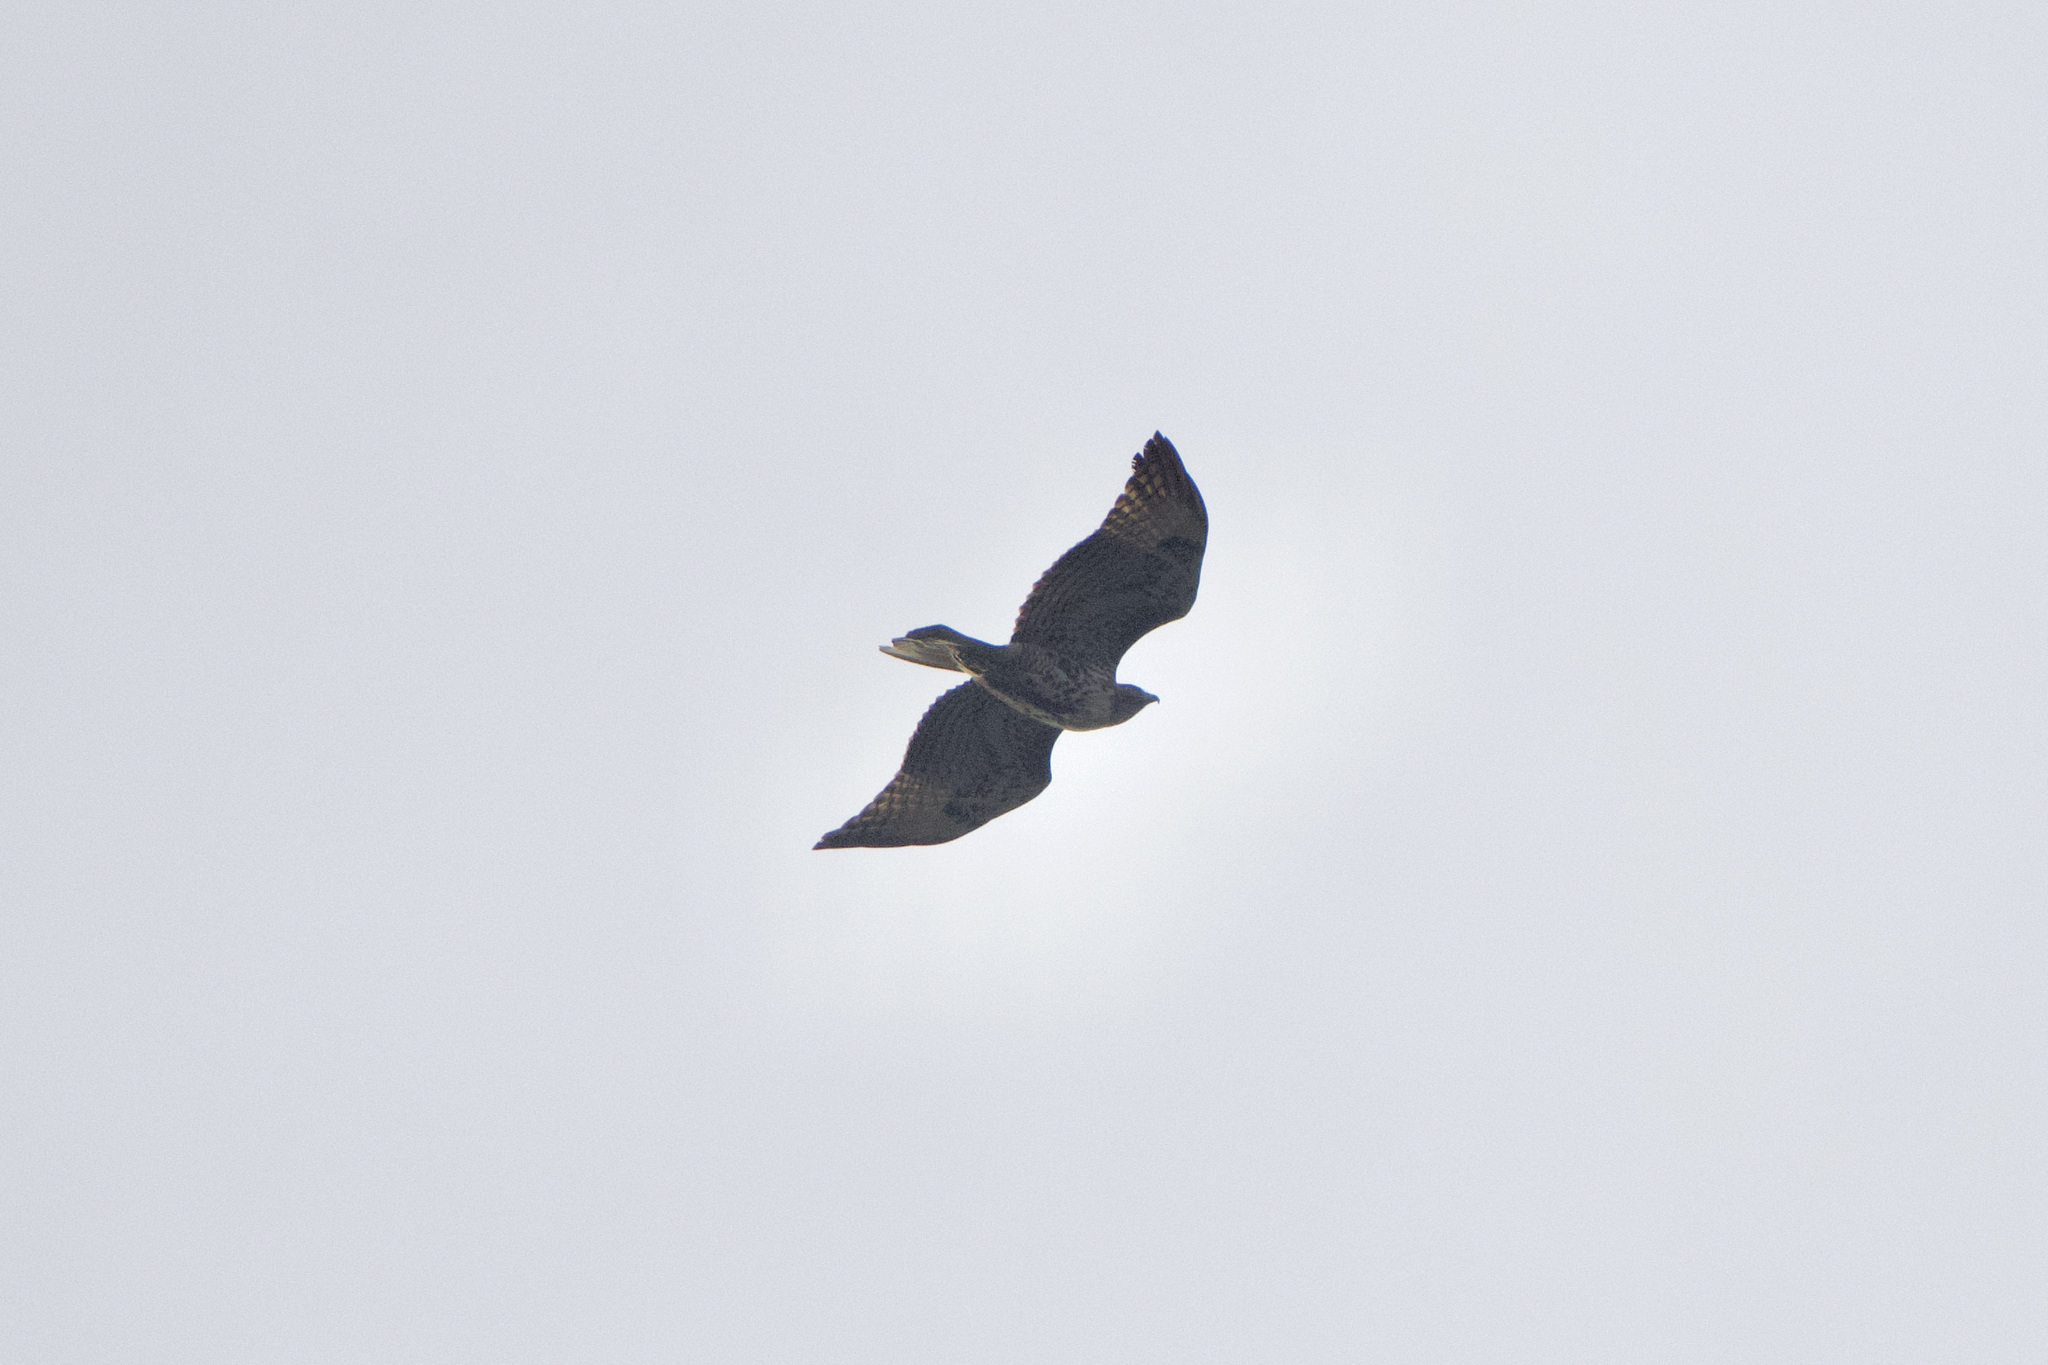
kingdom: Animalia
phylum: Chordata
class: Aves
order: Accipitriformes
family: Accipitridae
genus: Buteo
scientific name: Buteo jamaicensis
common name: Red-tailed hawk
